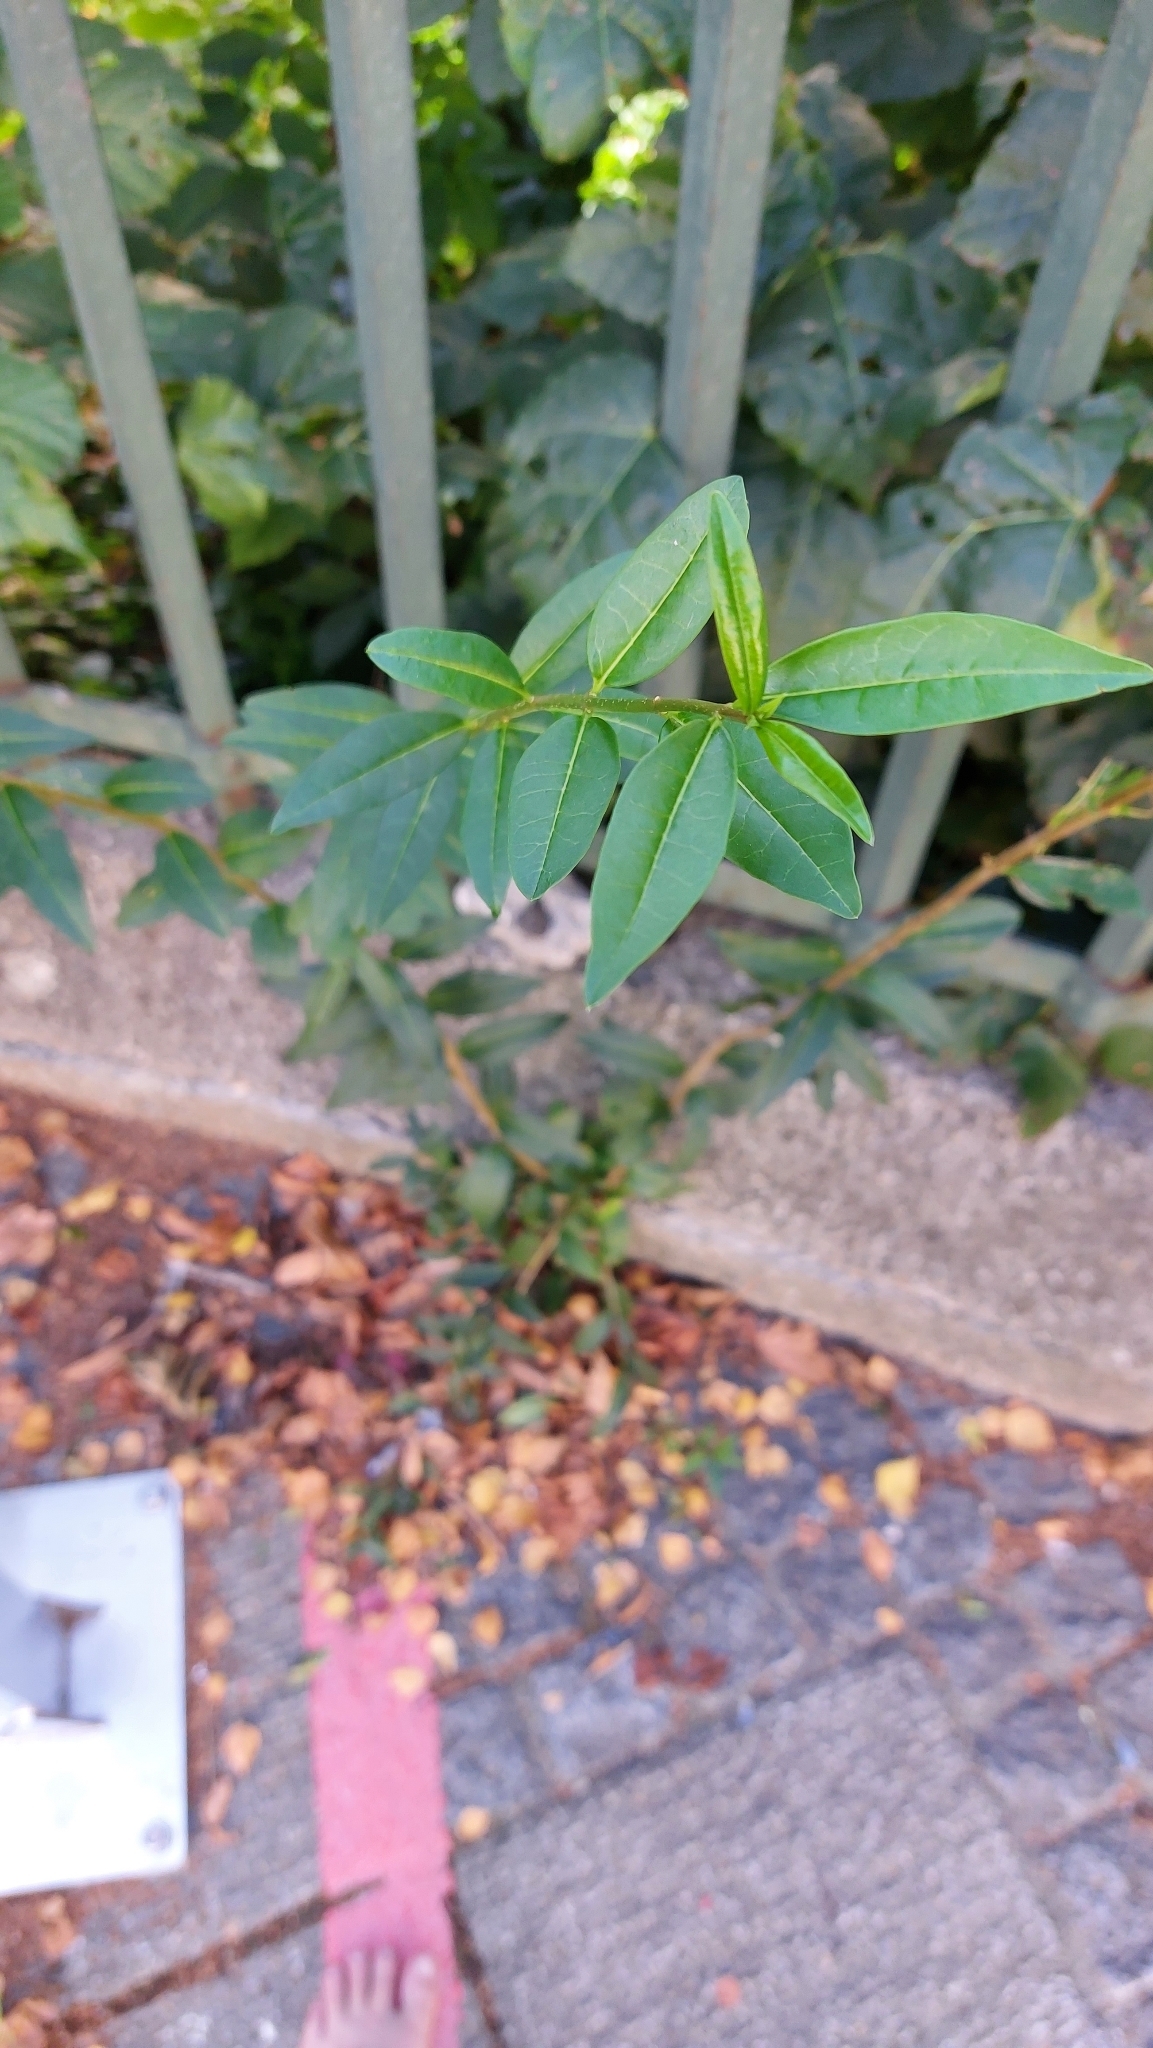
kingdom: Plantae
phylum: Tracheophyta
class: Magnoliopsida
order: Lamiales
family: Oleaceae
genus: Ligustrum
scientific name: Ligustrum vulgare
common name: Wild privet
